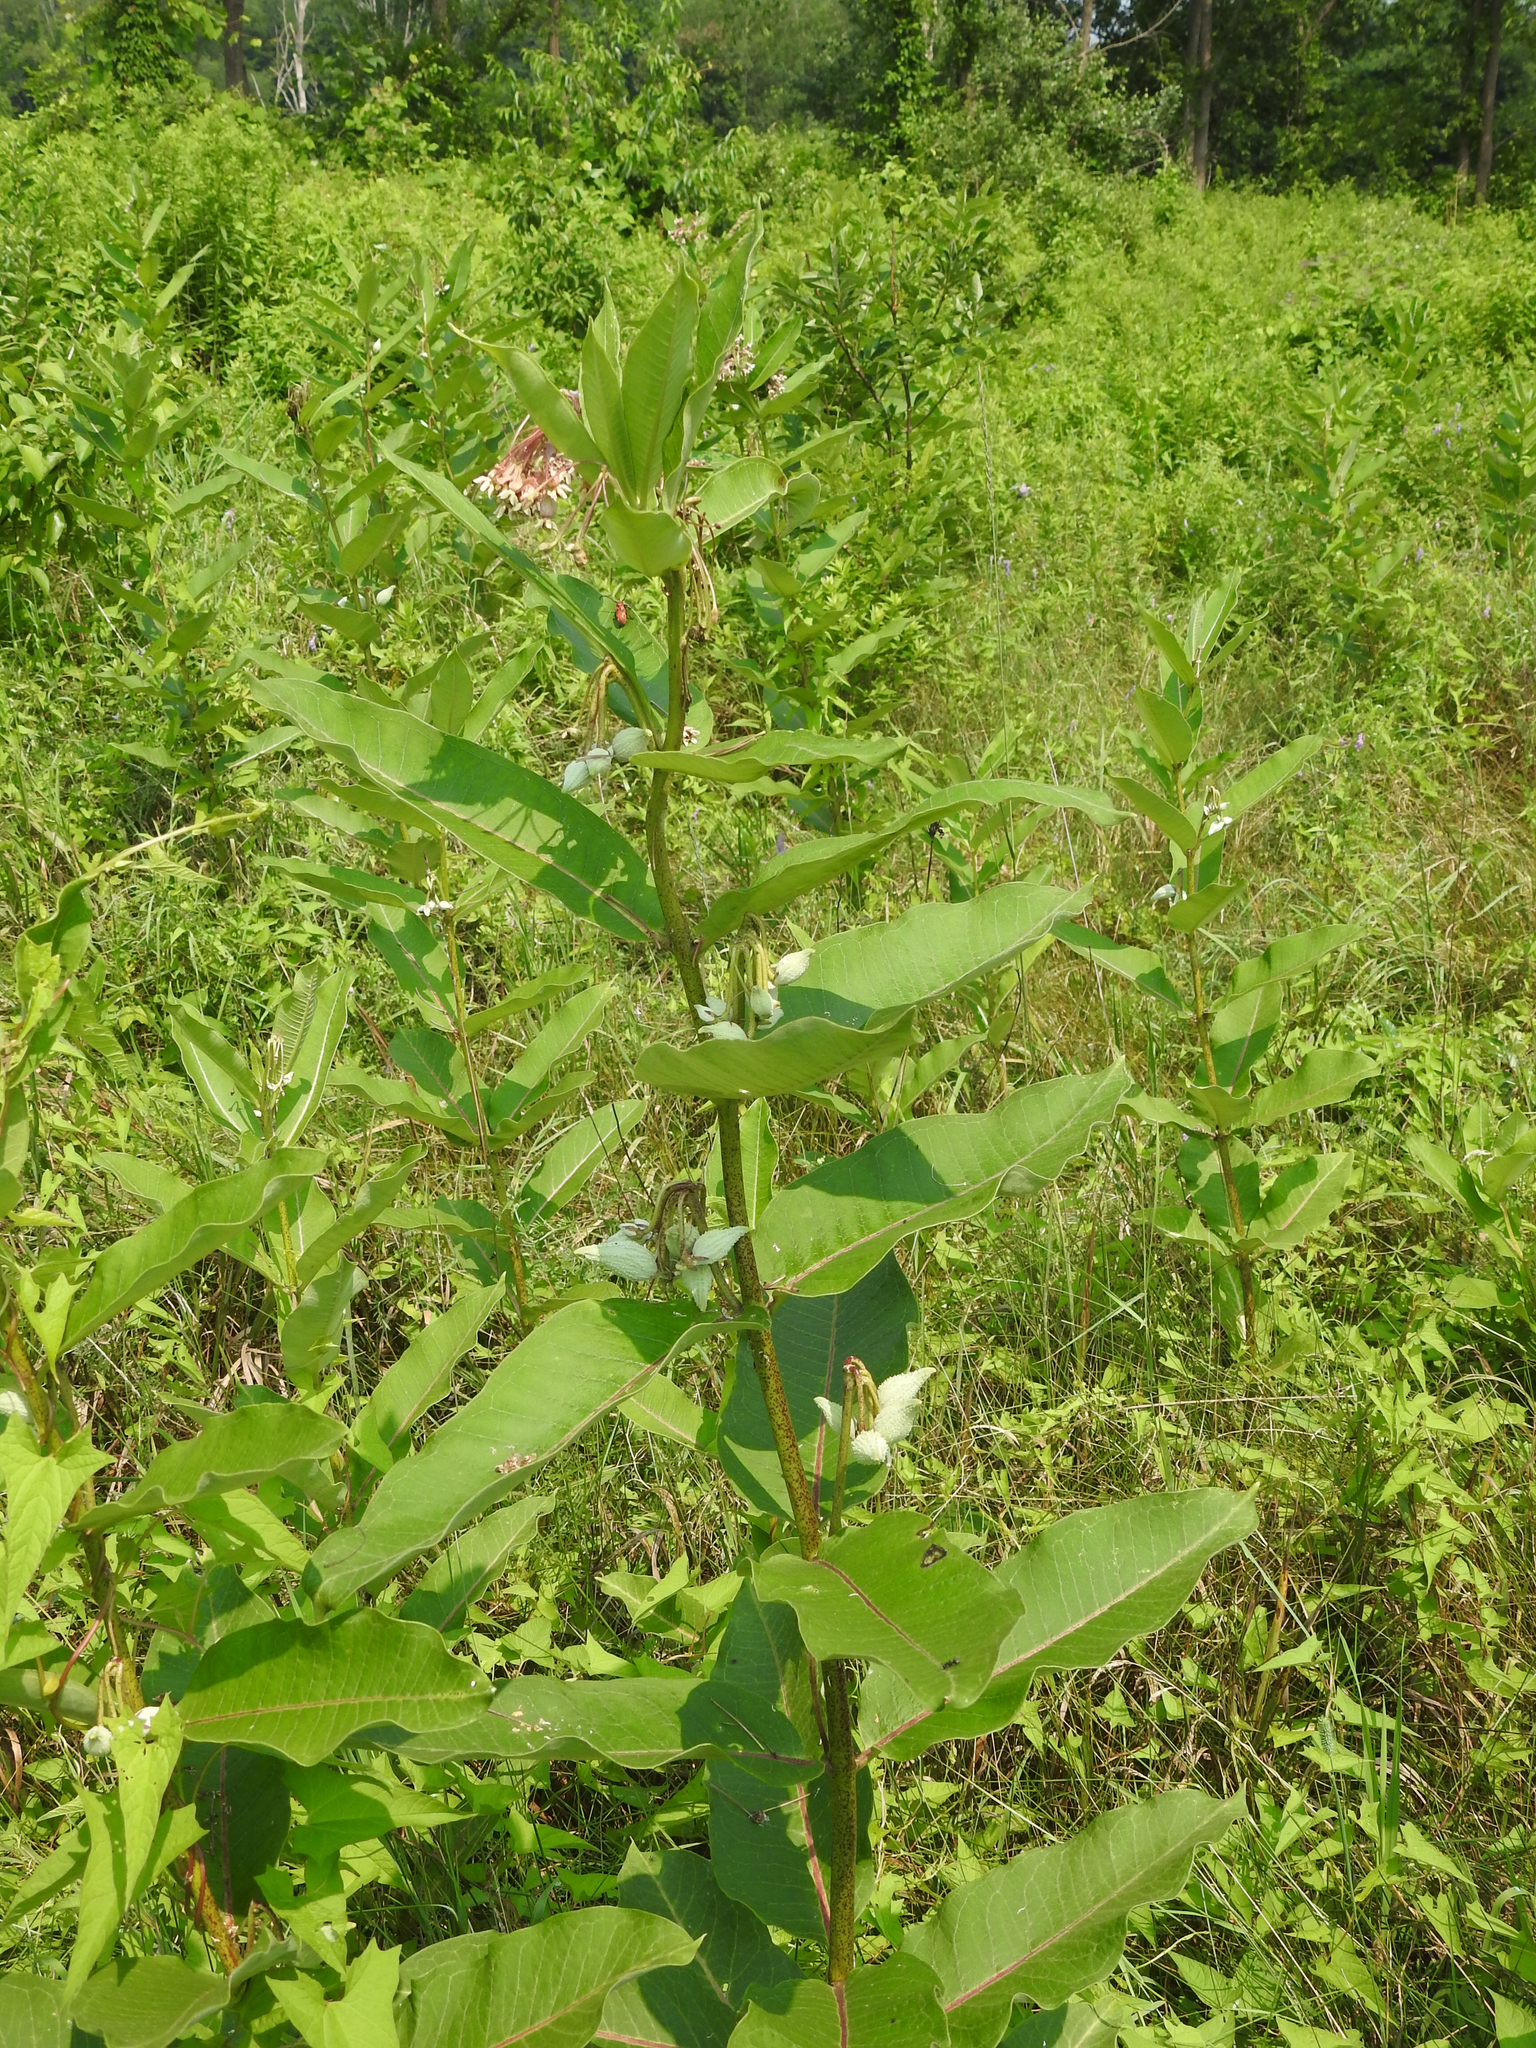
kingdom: Plantae
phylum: Tracheophyta
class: Magnoliopsida
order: Gentianales
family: Apocynaceae
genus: Asclepias
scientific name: Asclepias syriaca
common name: Common milkweed
